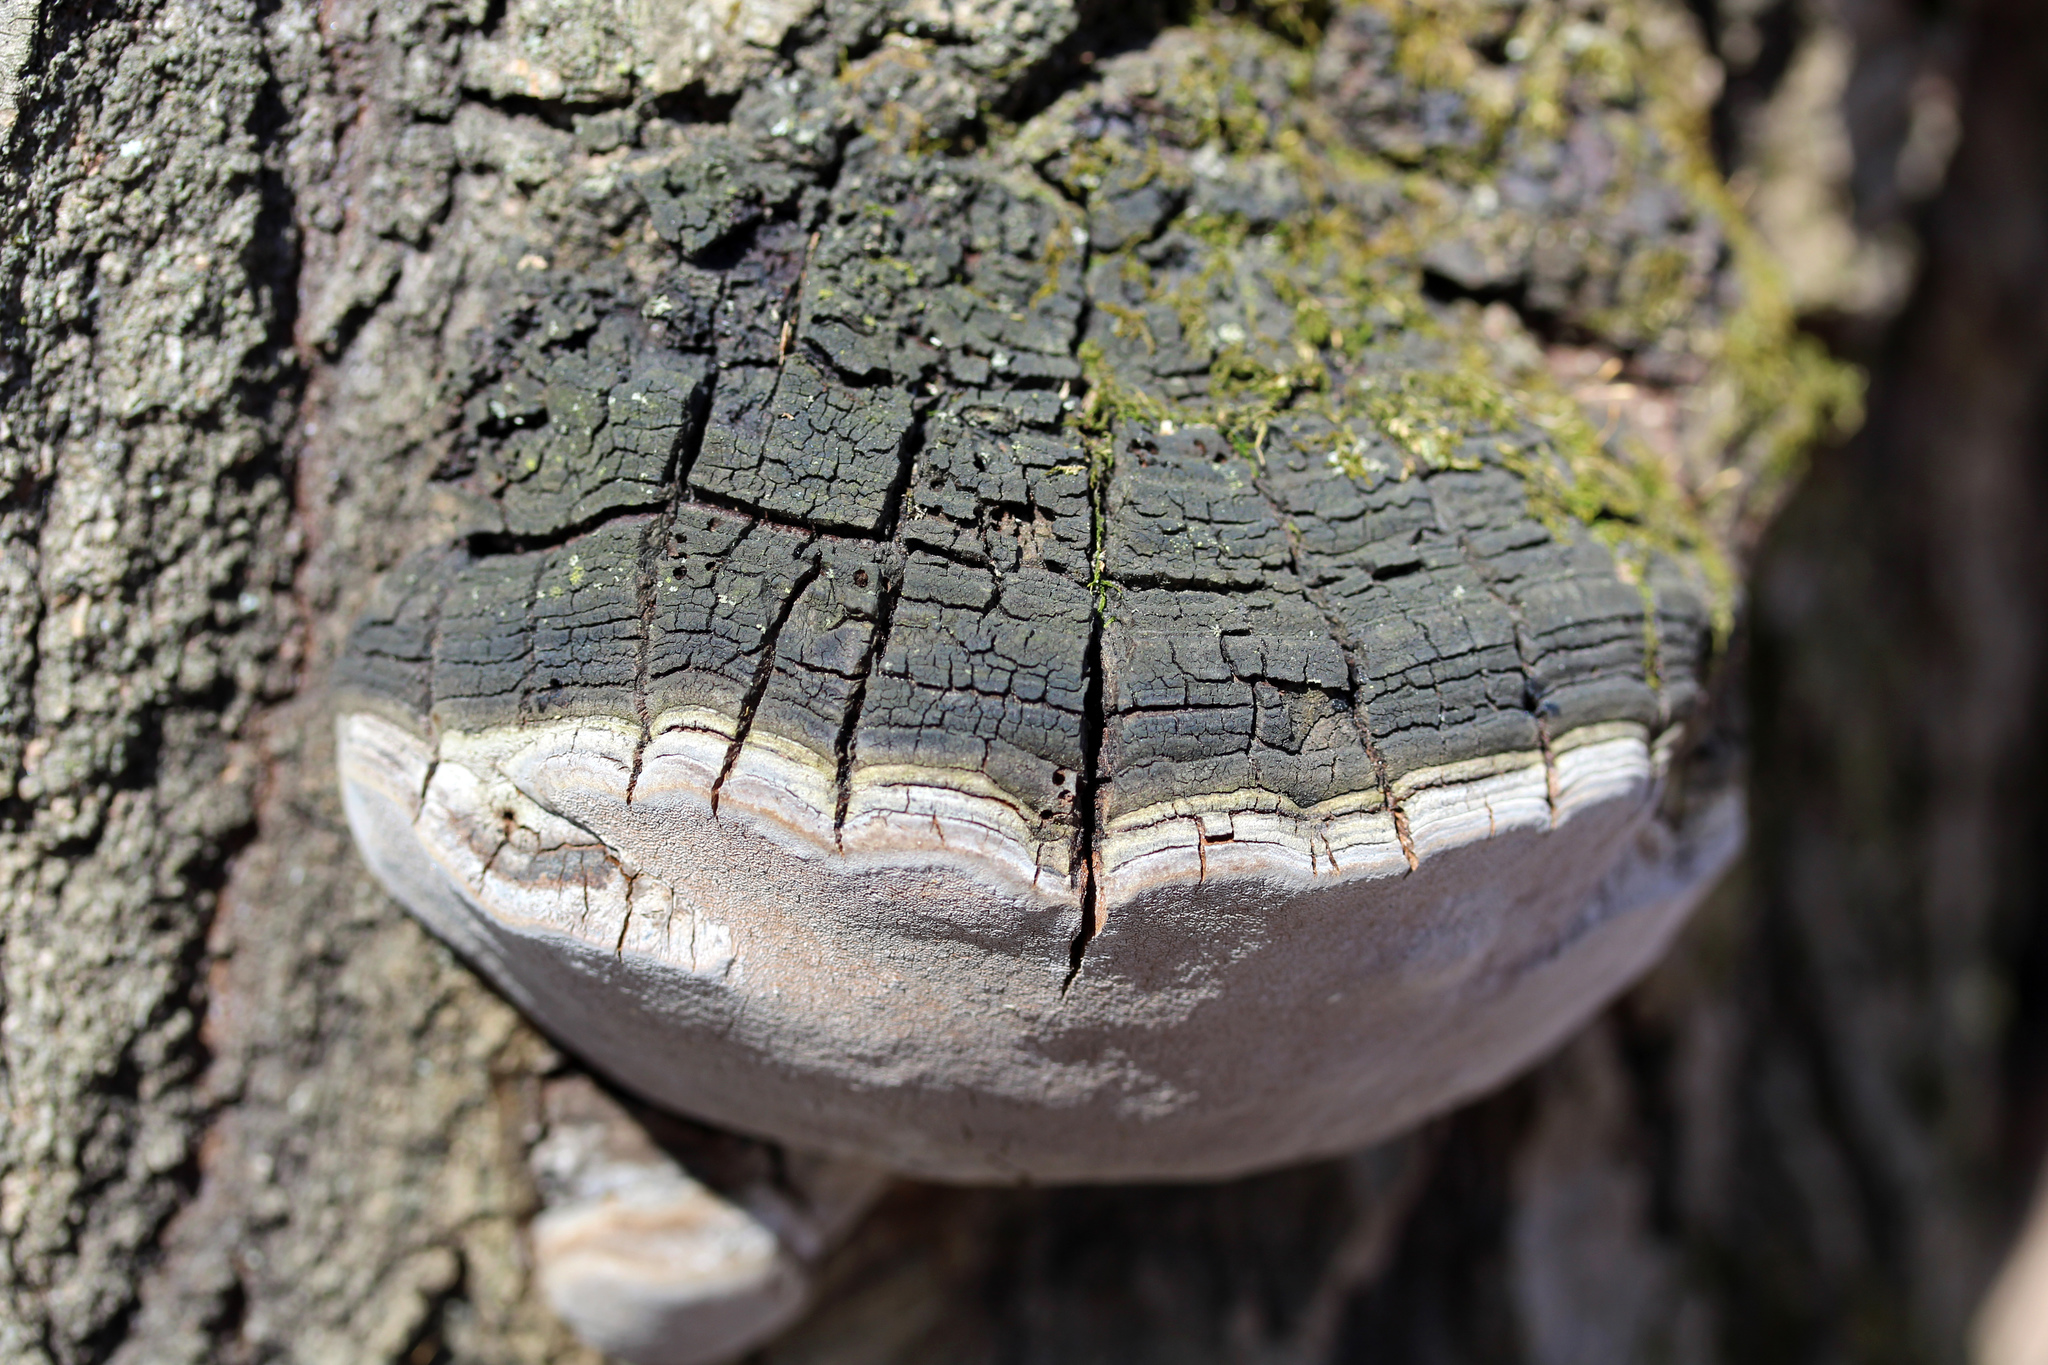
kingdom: Fungi
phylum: Basidiomycota
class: Agaricomycetes
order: Hymenochaetales
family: Hymenochaetaceae
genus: Phellinus
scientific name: Phellinus tremulae
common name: Aspen bracket
